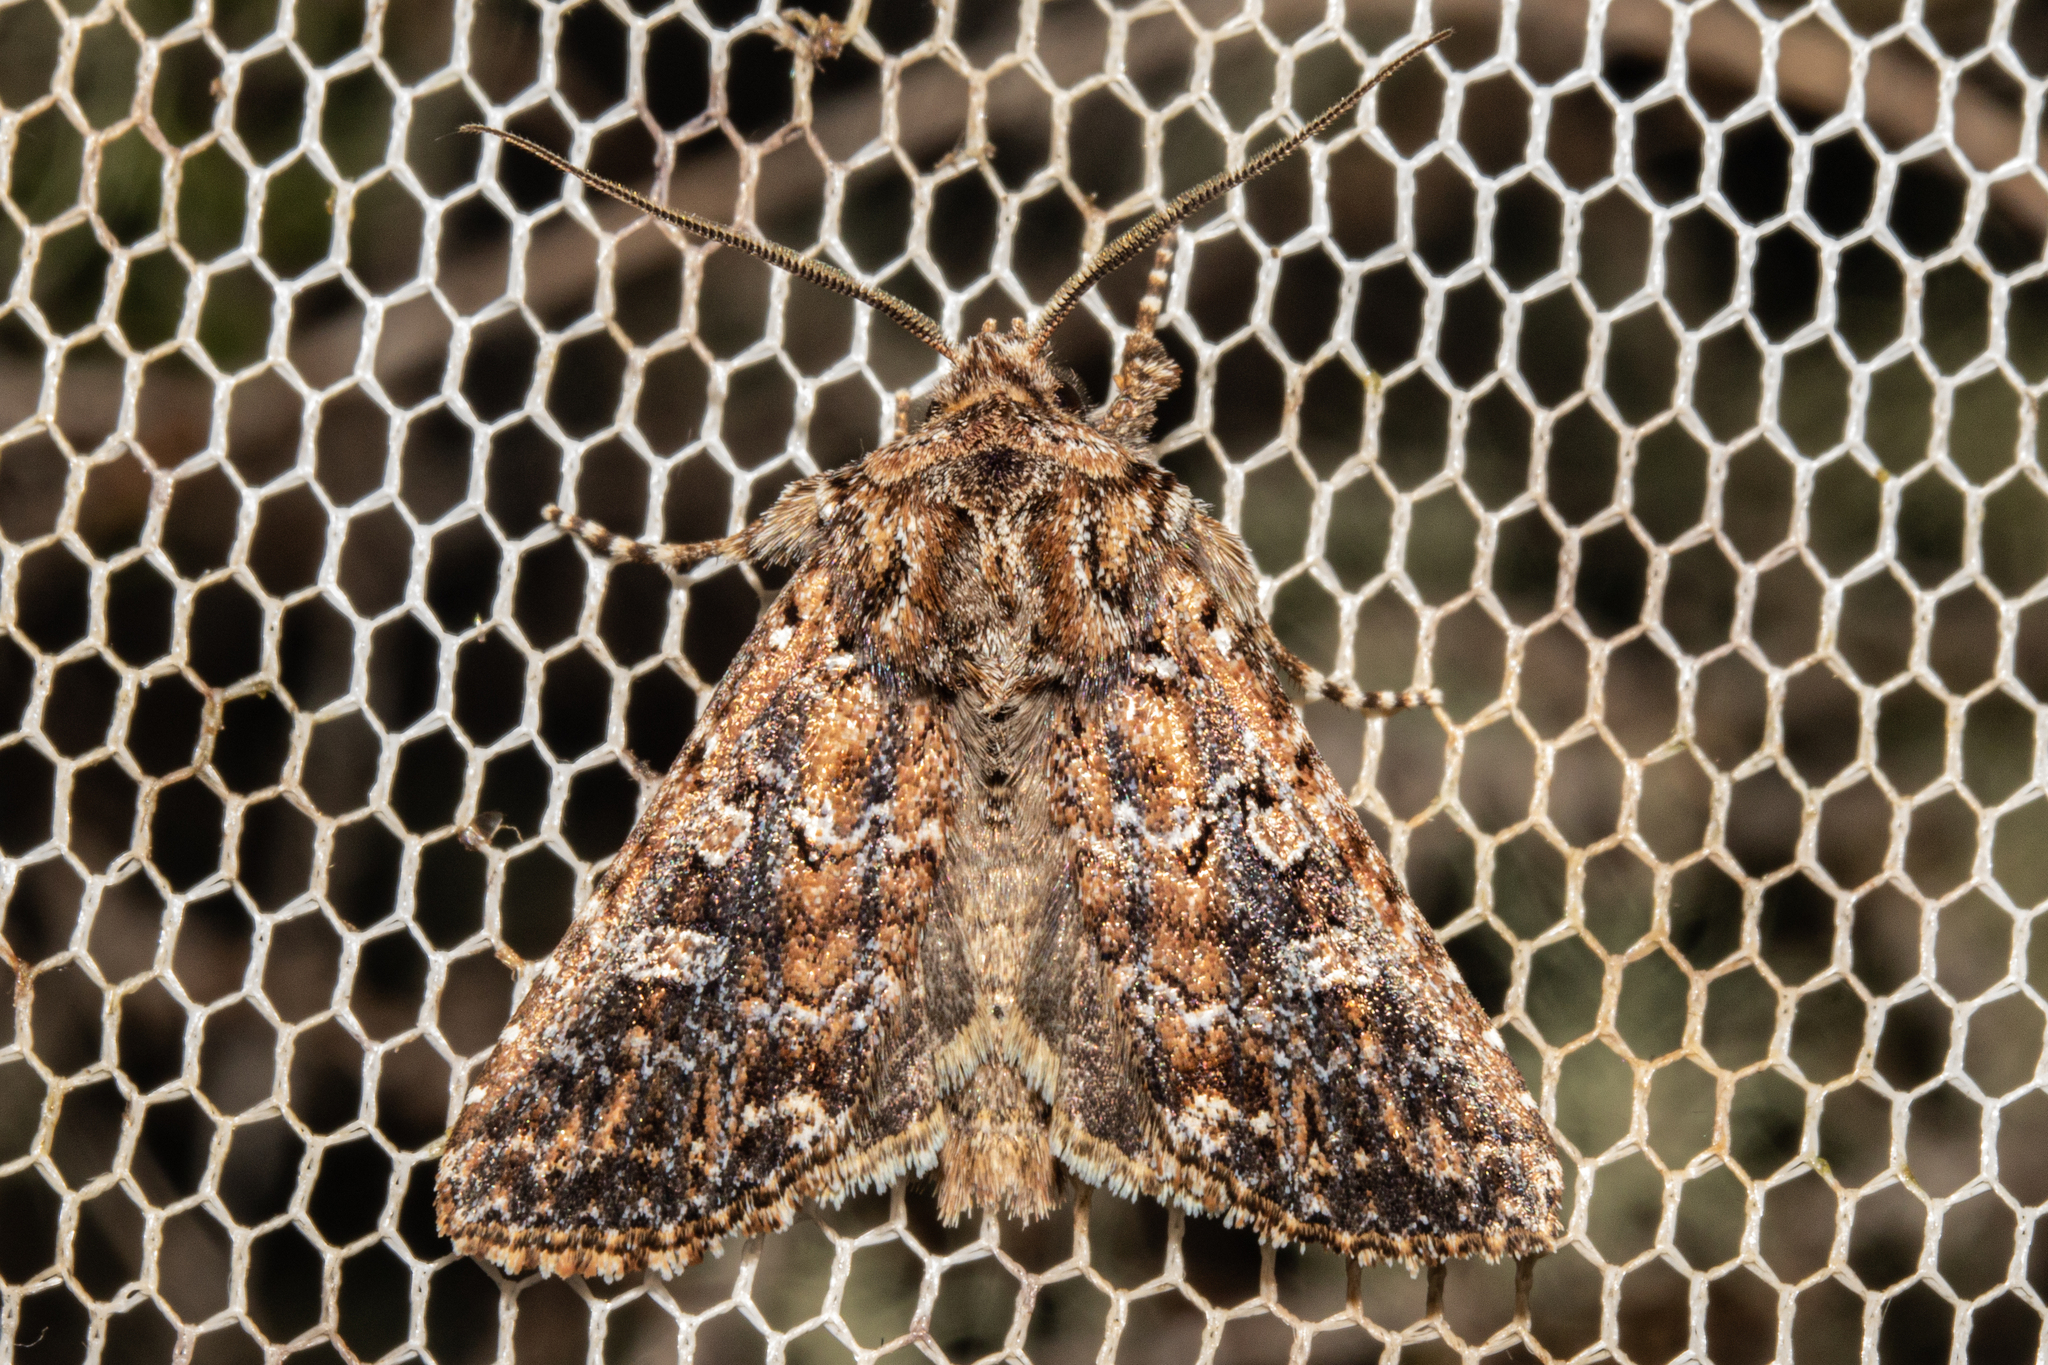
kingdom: Animalia
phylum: Arthropoda
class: Insecta
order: Lepidoptera
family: Noctuidae
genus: Ichneutica
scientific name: Ichneutica lithias
